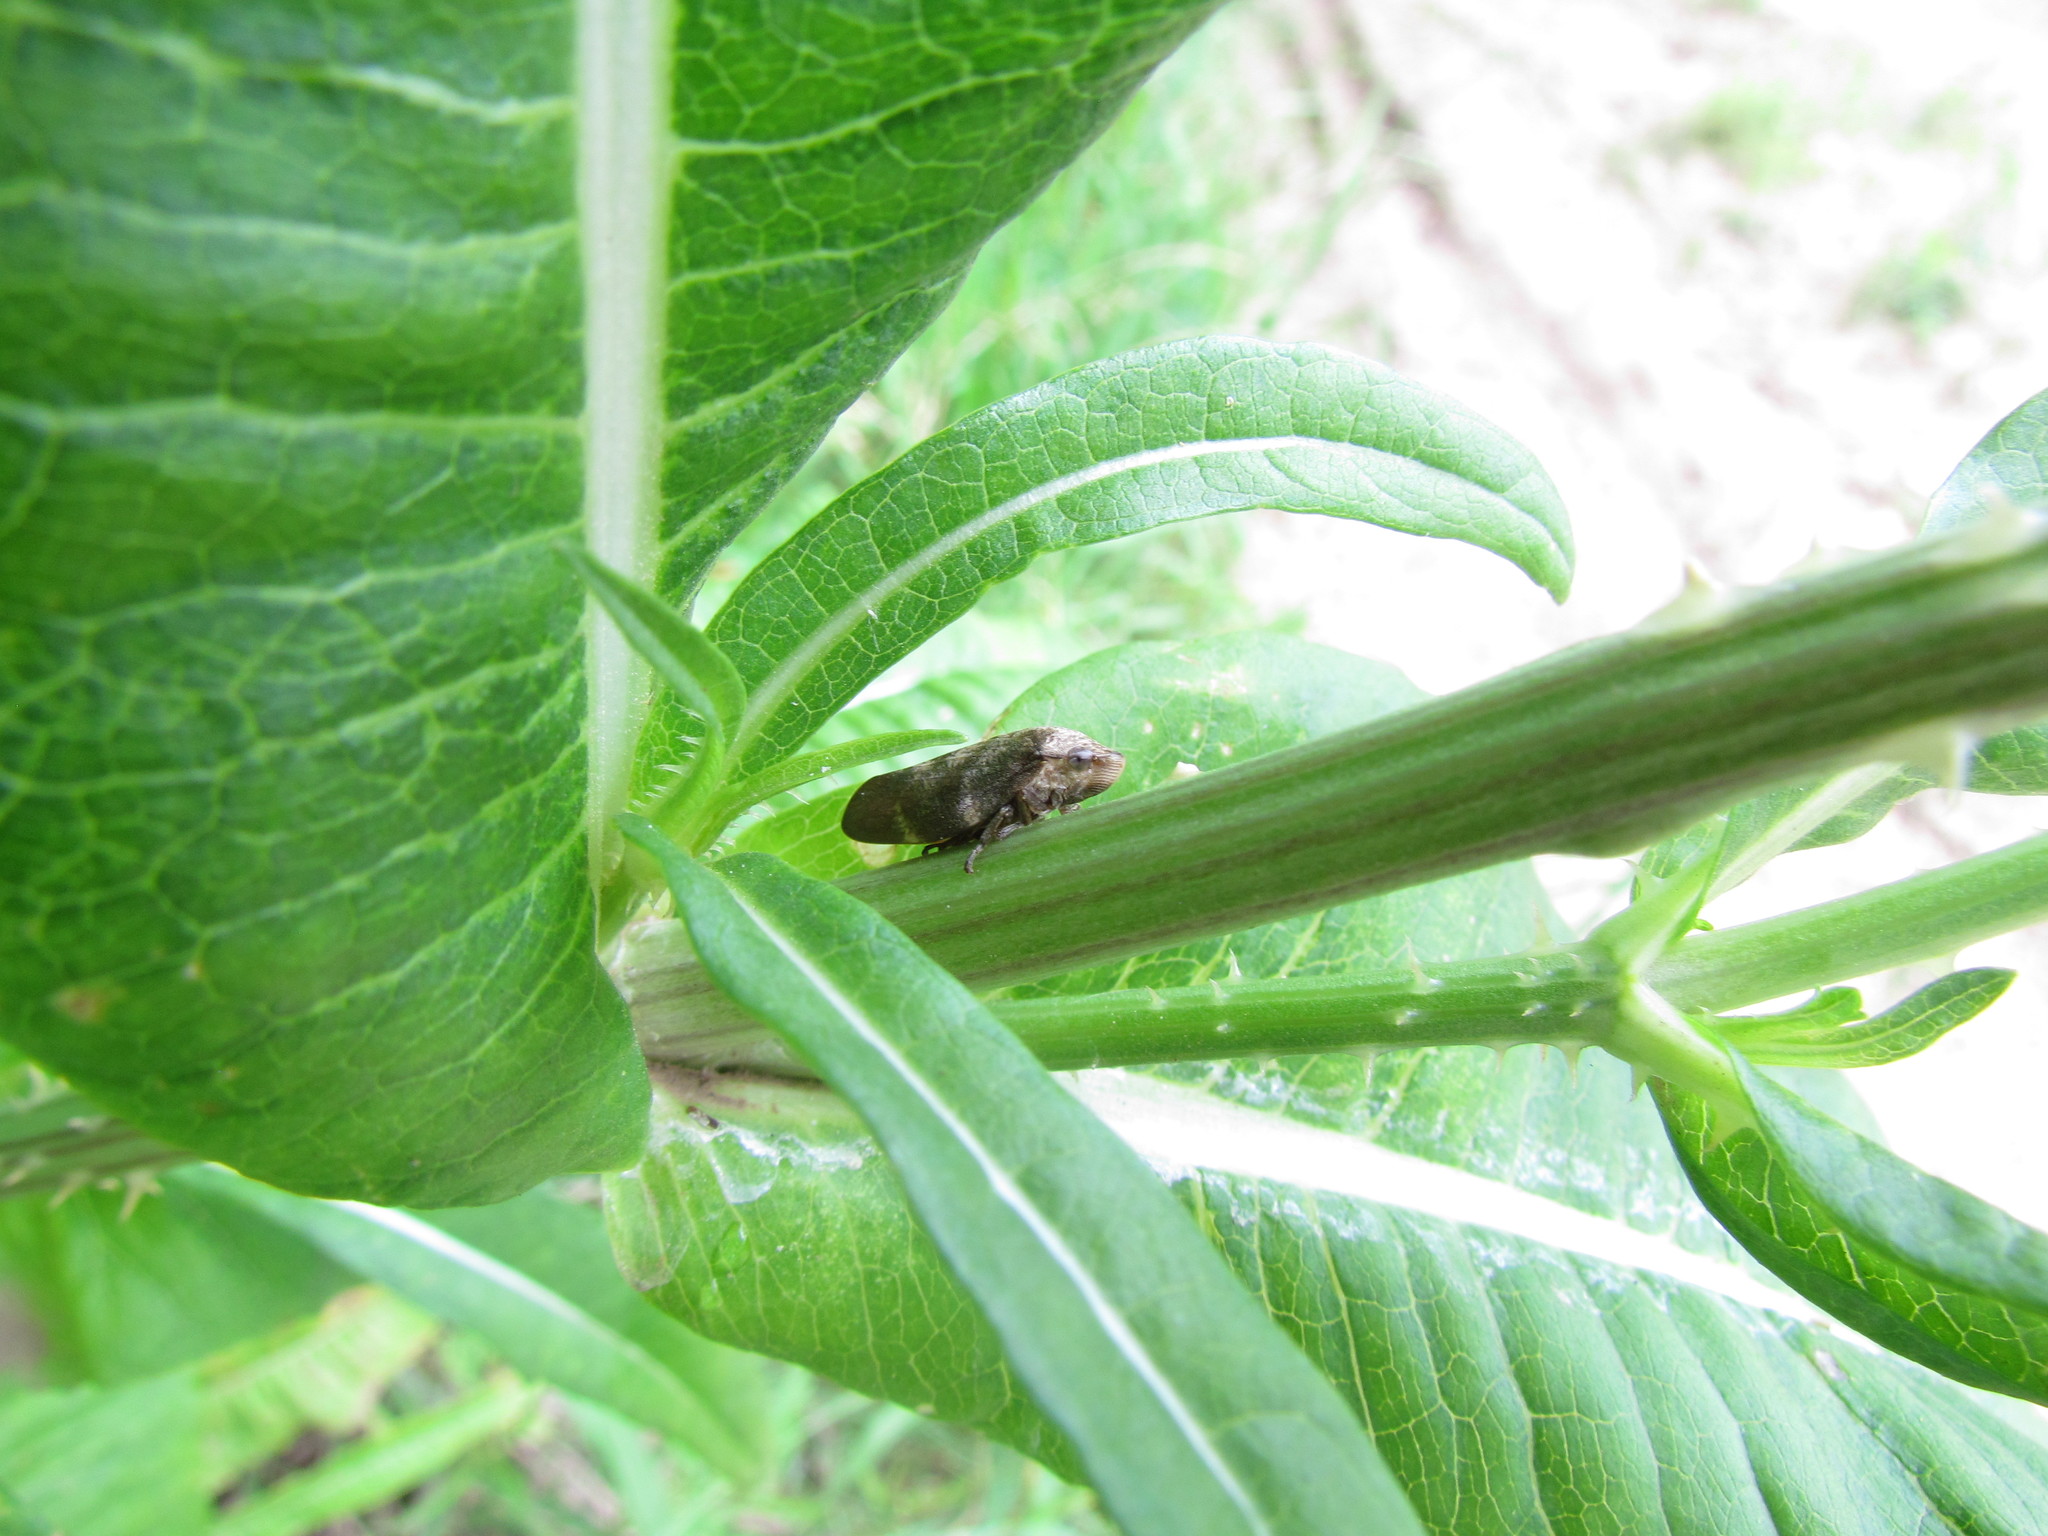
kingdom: Animalia
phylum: Arthropoda
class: Insecta
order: Hemiptera
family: Aphrophoridae
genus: Cephisus
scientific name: Cephisus siccifolius
